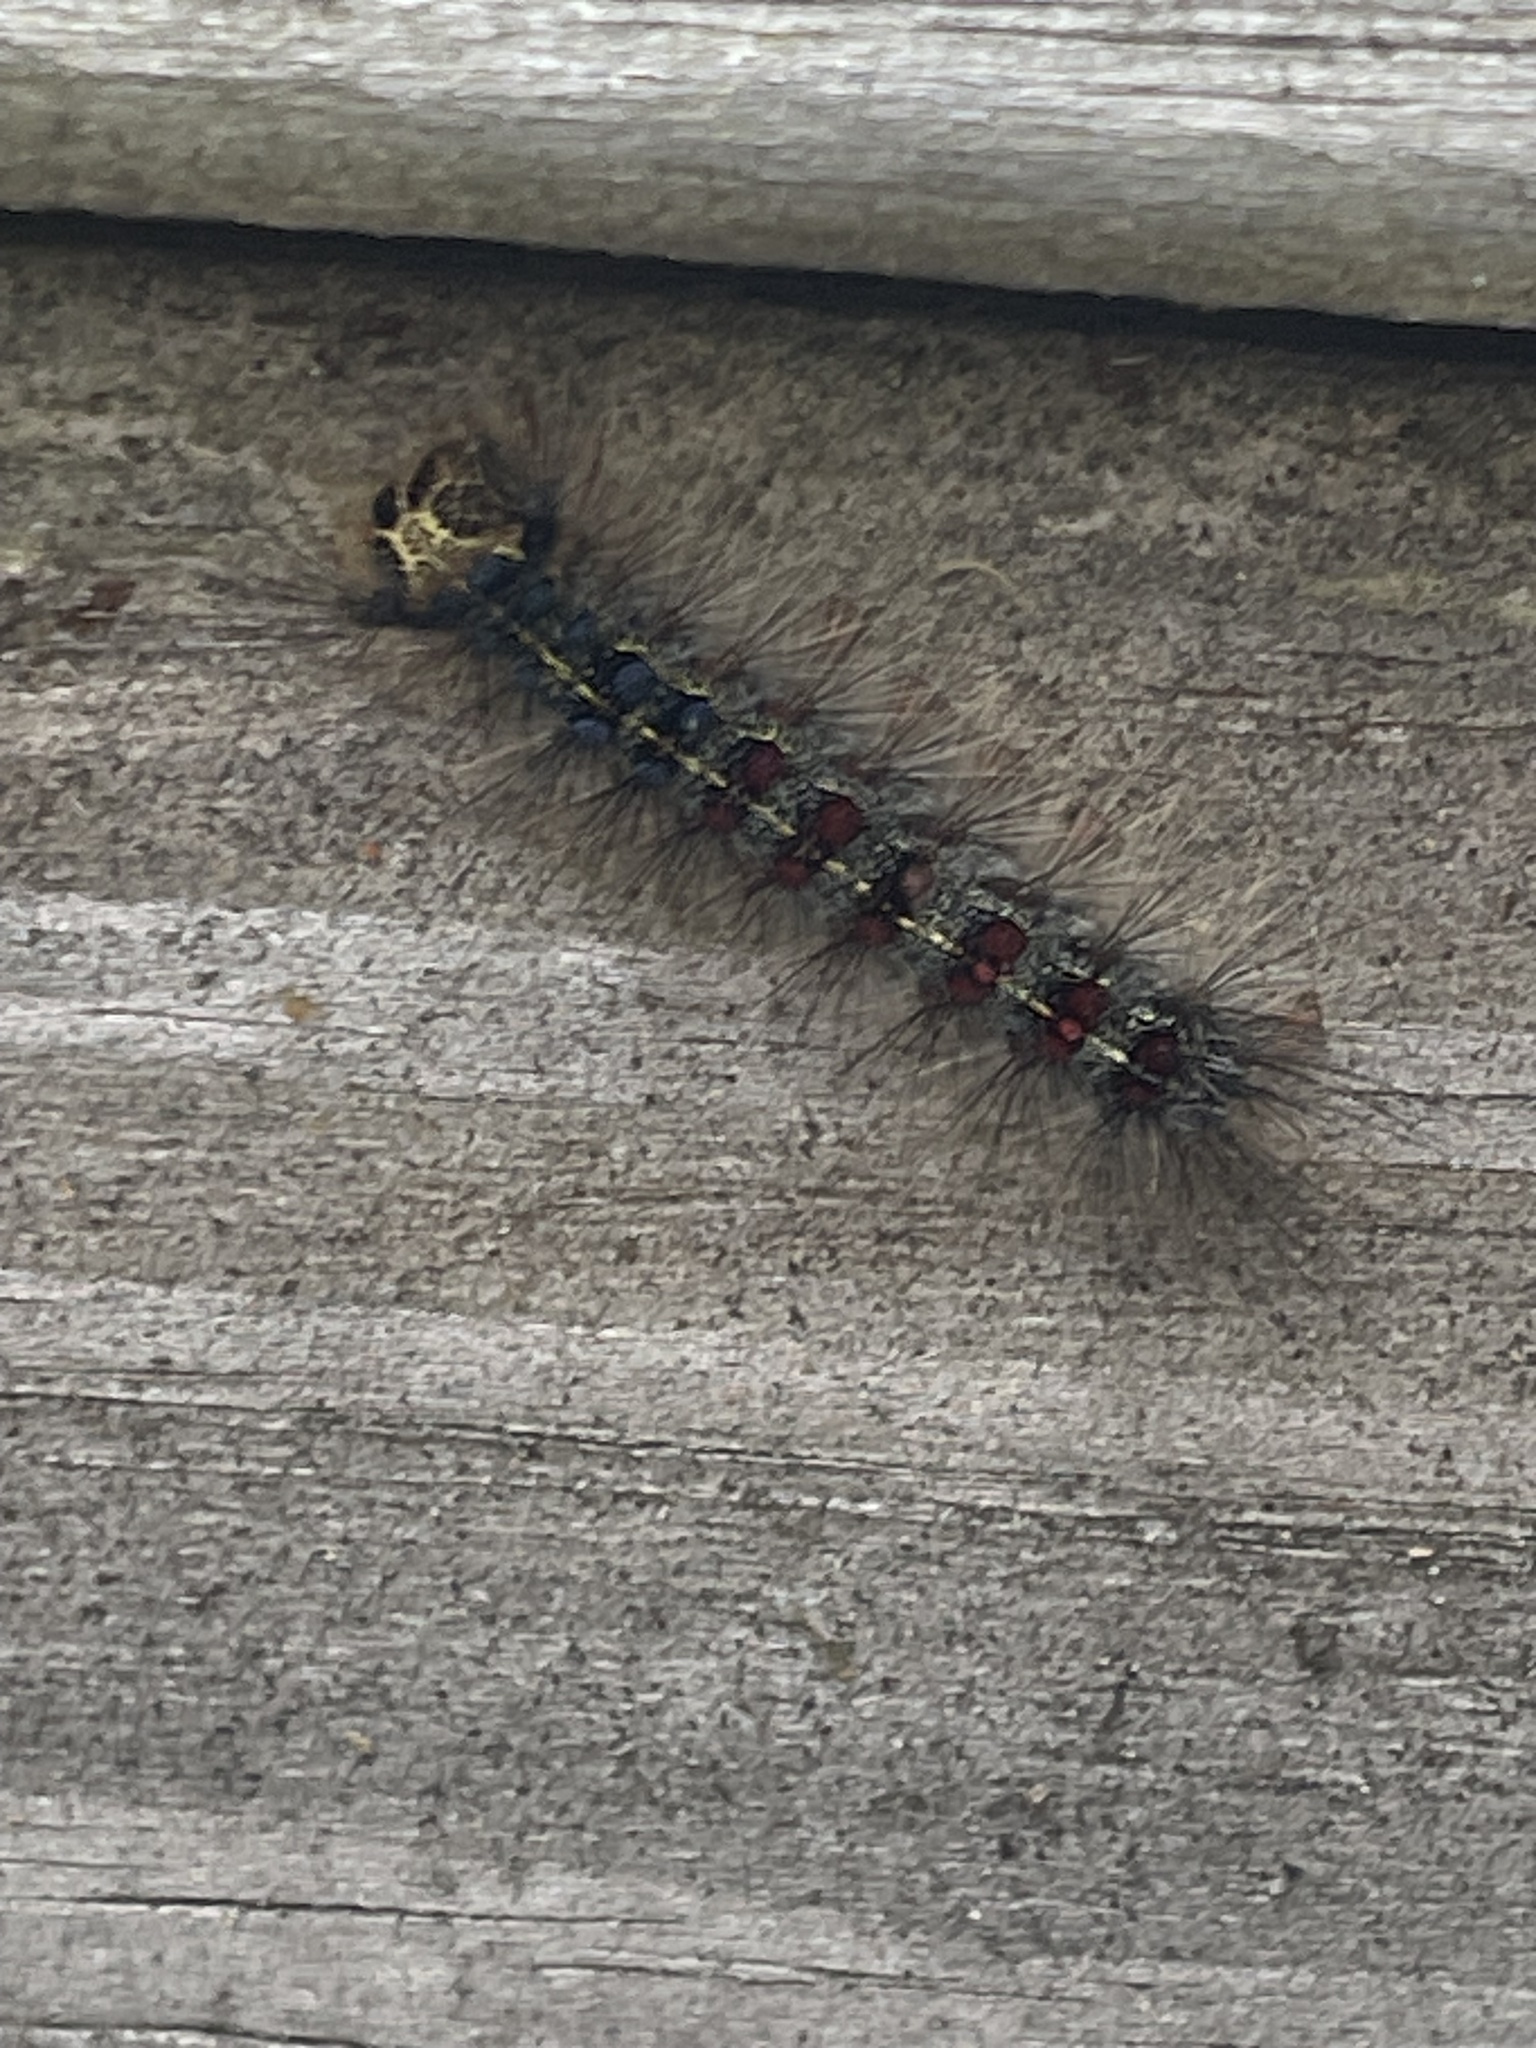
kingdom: Animalia
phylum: Arthropoda
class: Insecta
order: Lepidoptera
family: Erebidae
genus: Lymantria
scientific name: Lymantria dispar
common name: Gypsy moth
